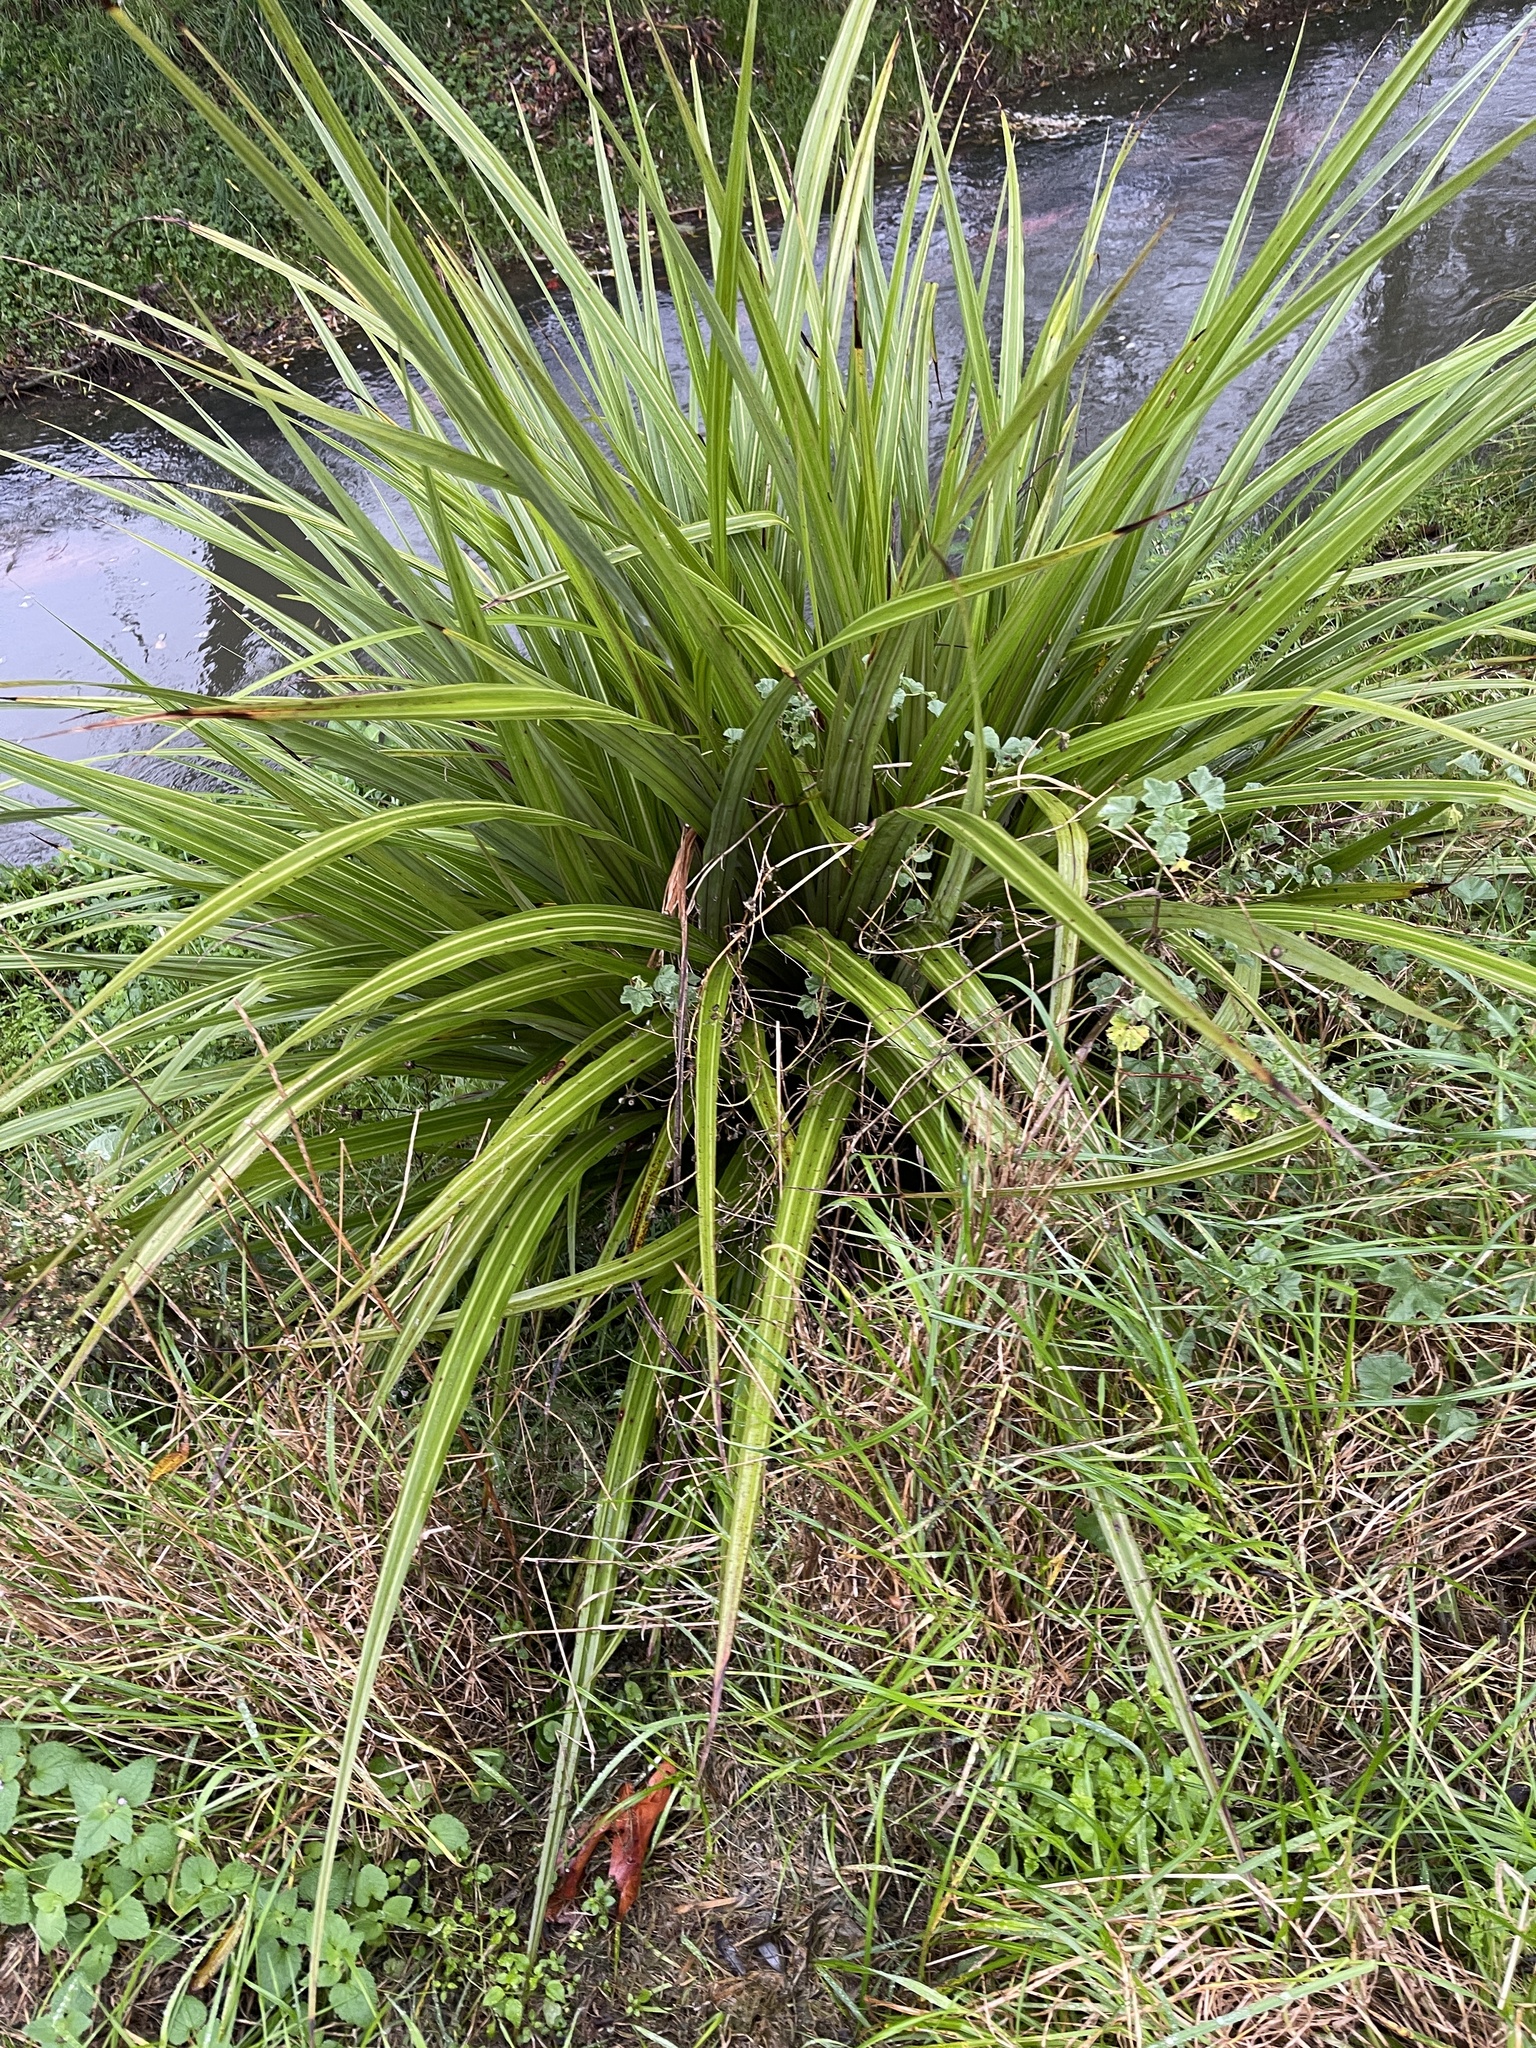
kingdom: Plantae
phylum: Tracheophyta
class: Liliopsida
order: Asparagales
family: Asteliaceae
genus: Astelia
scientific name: Astelia fragrans
